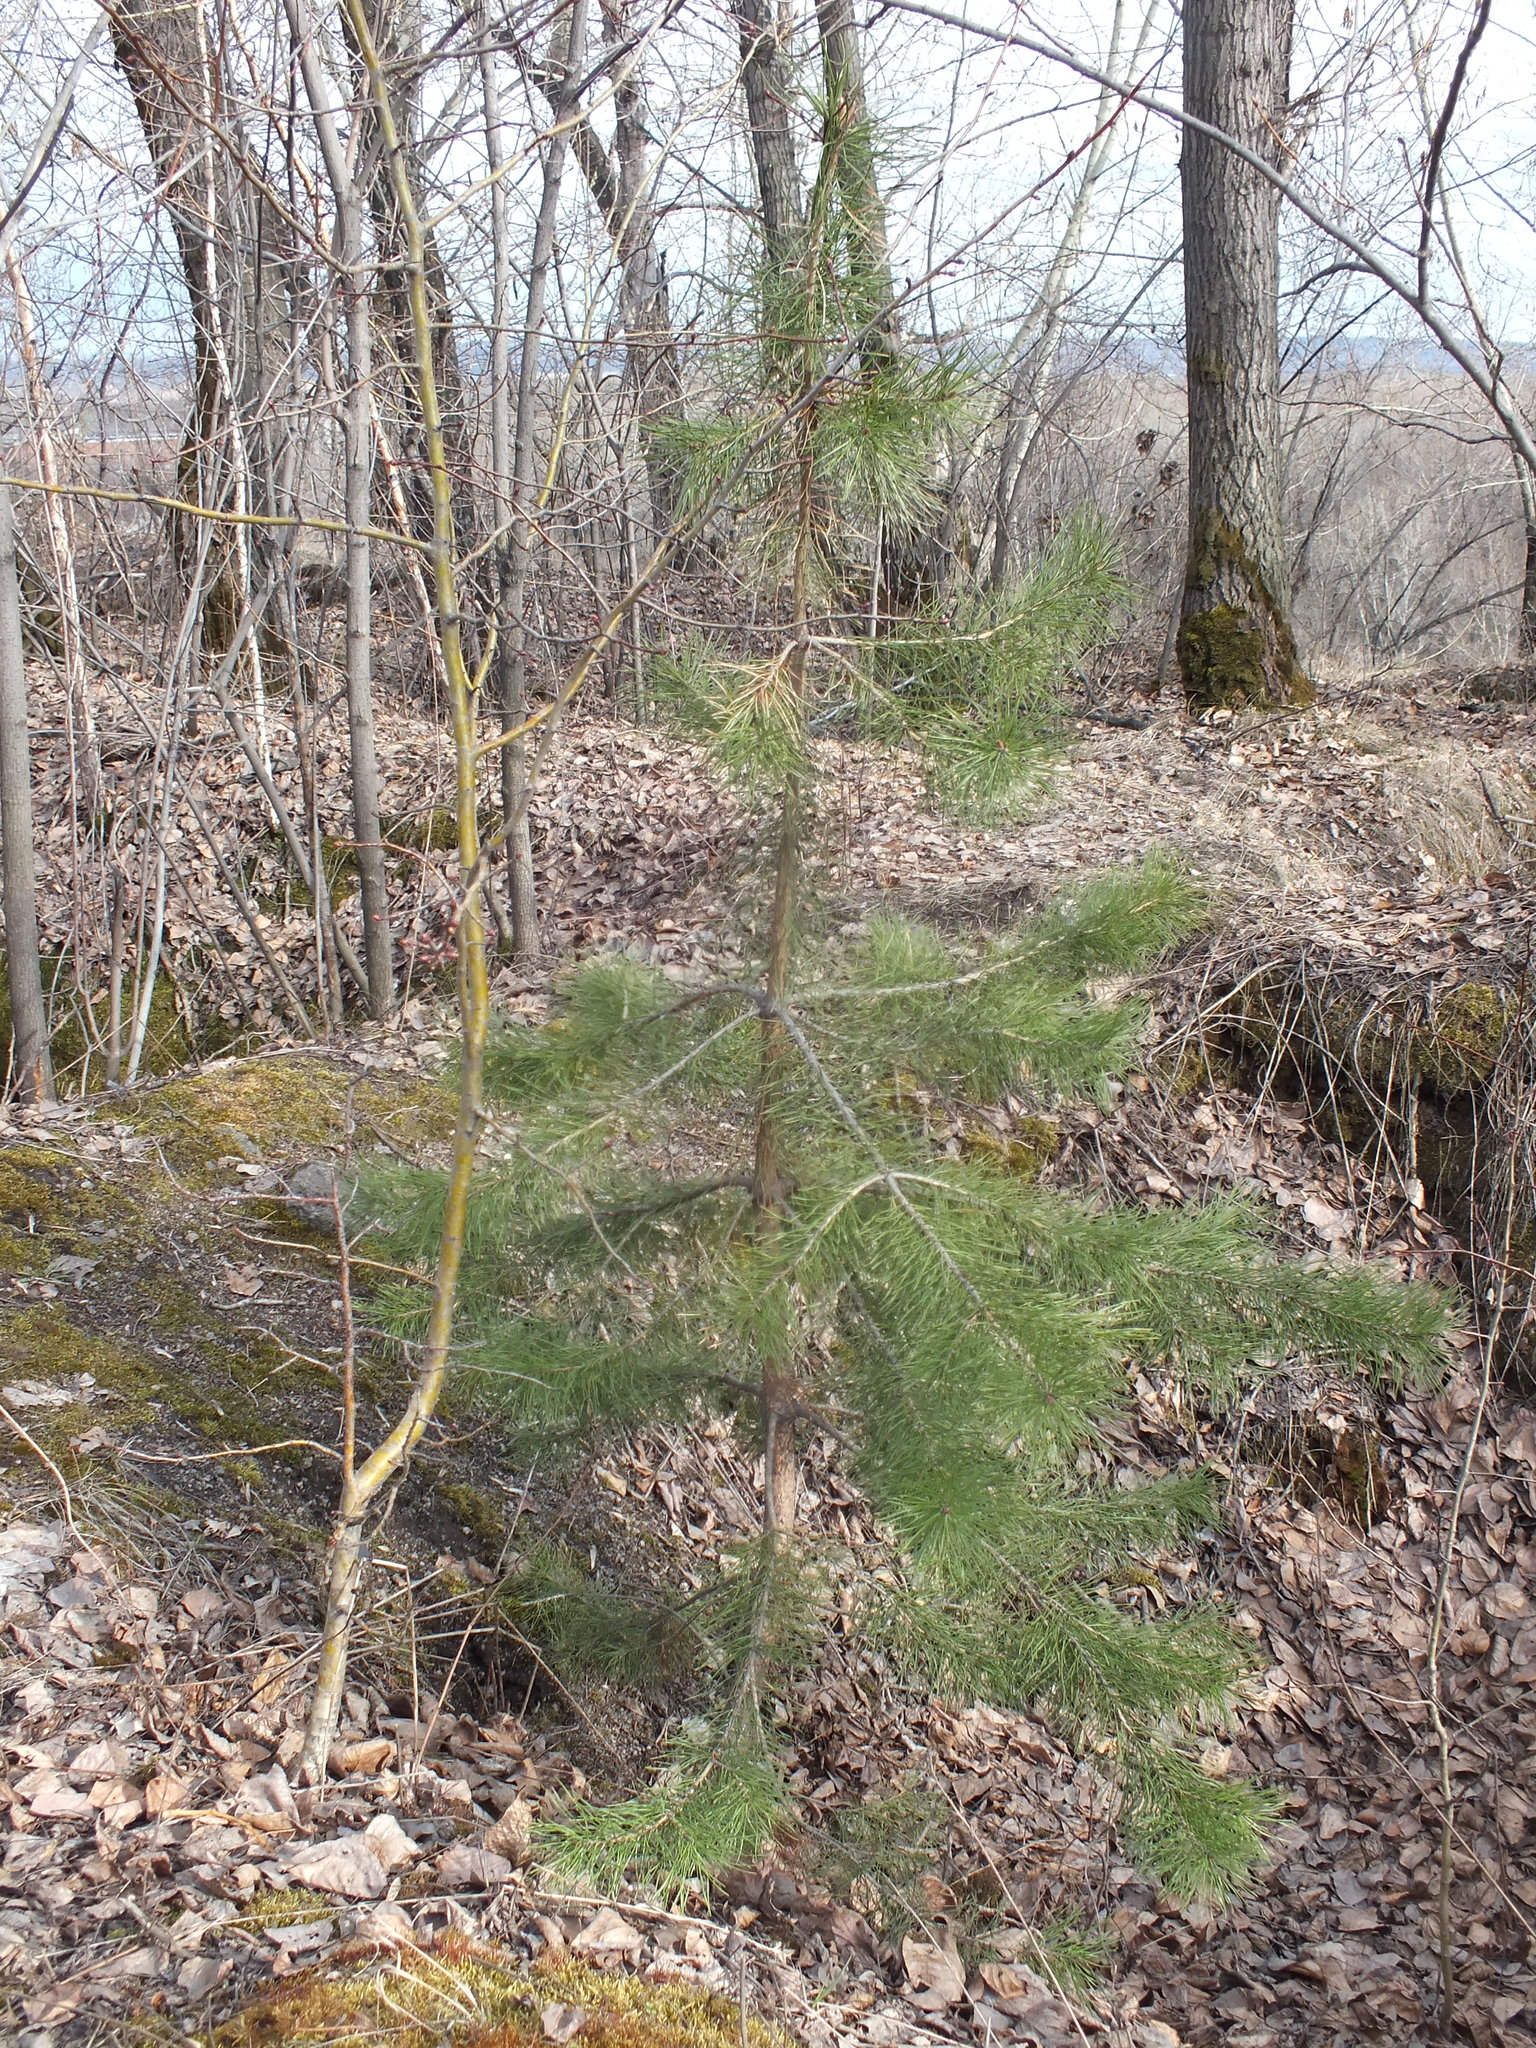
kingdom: Plantae
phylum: Tracheophyta
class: Pinopsida
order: Pinales
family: Pinaceae
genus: Pinus
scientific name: Pinus sylvestris
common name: Scots pine
